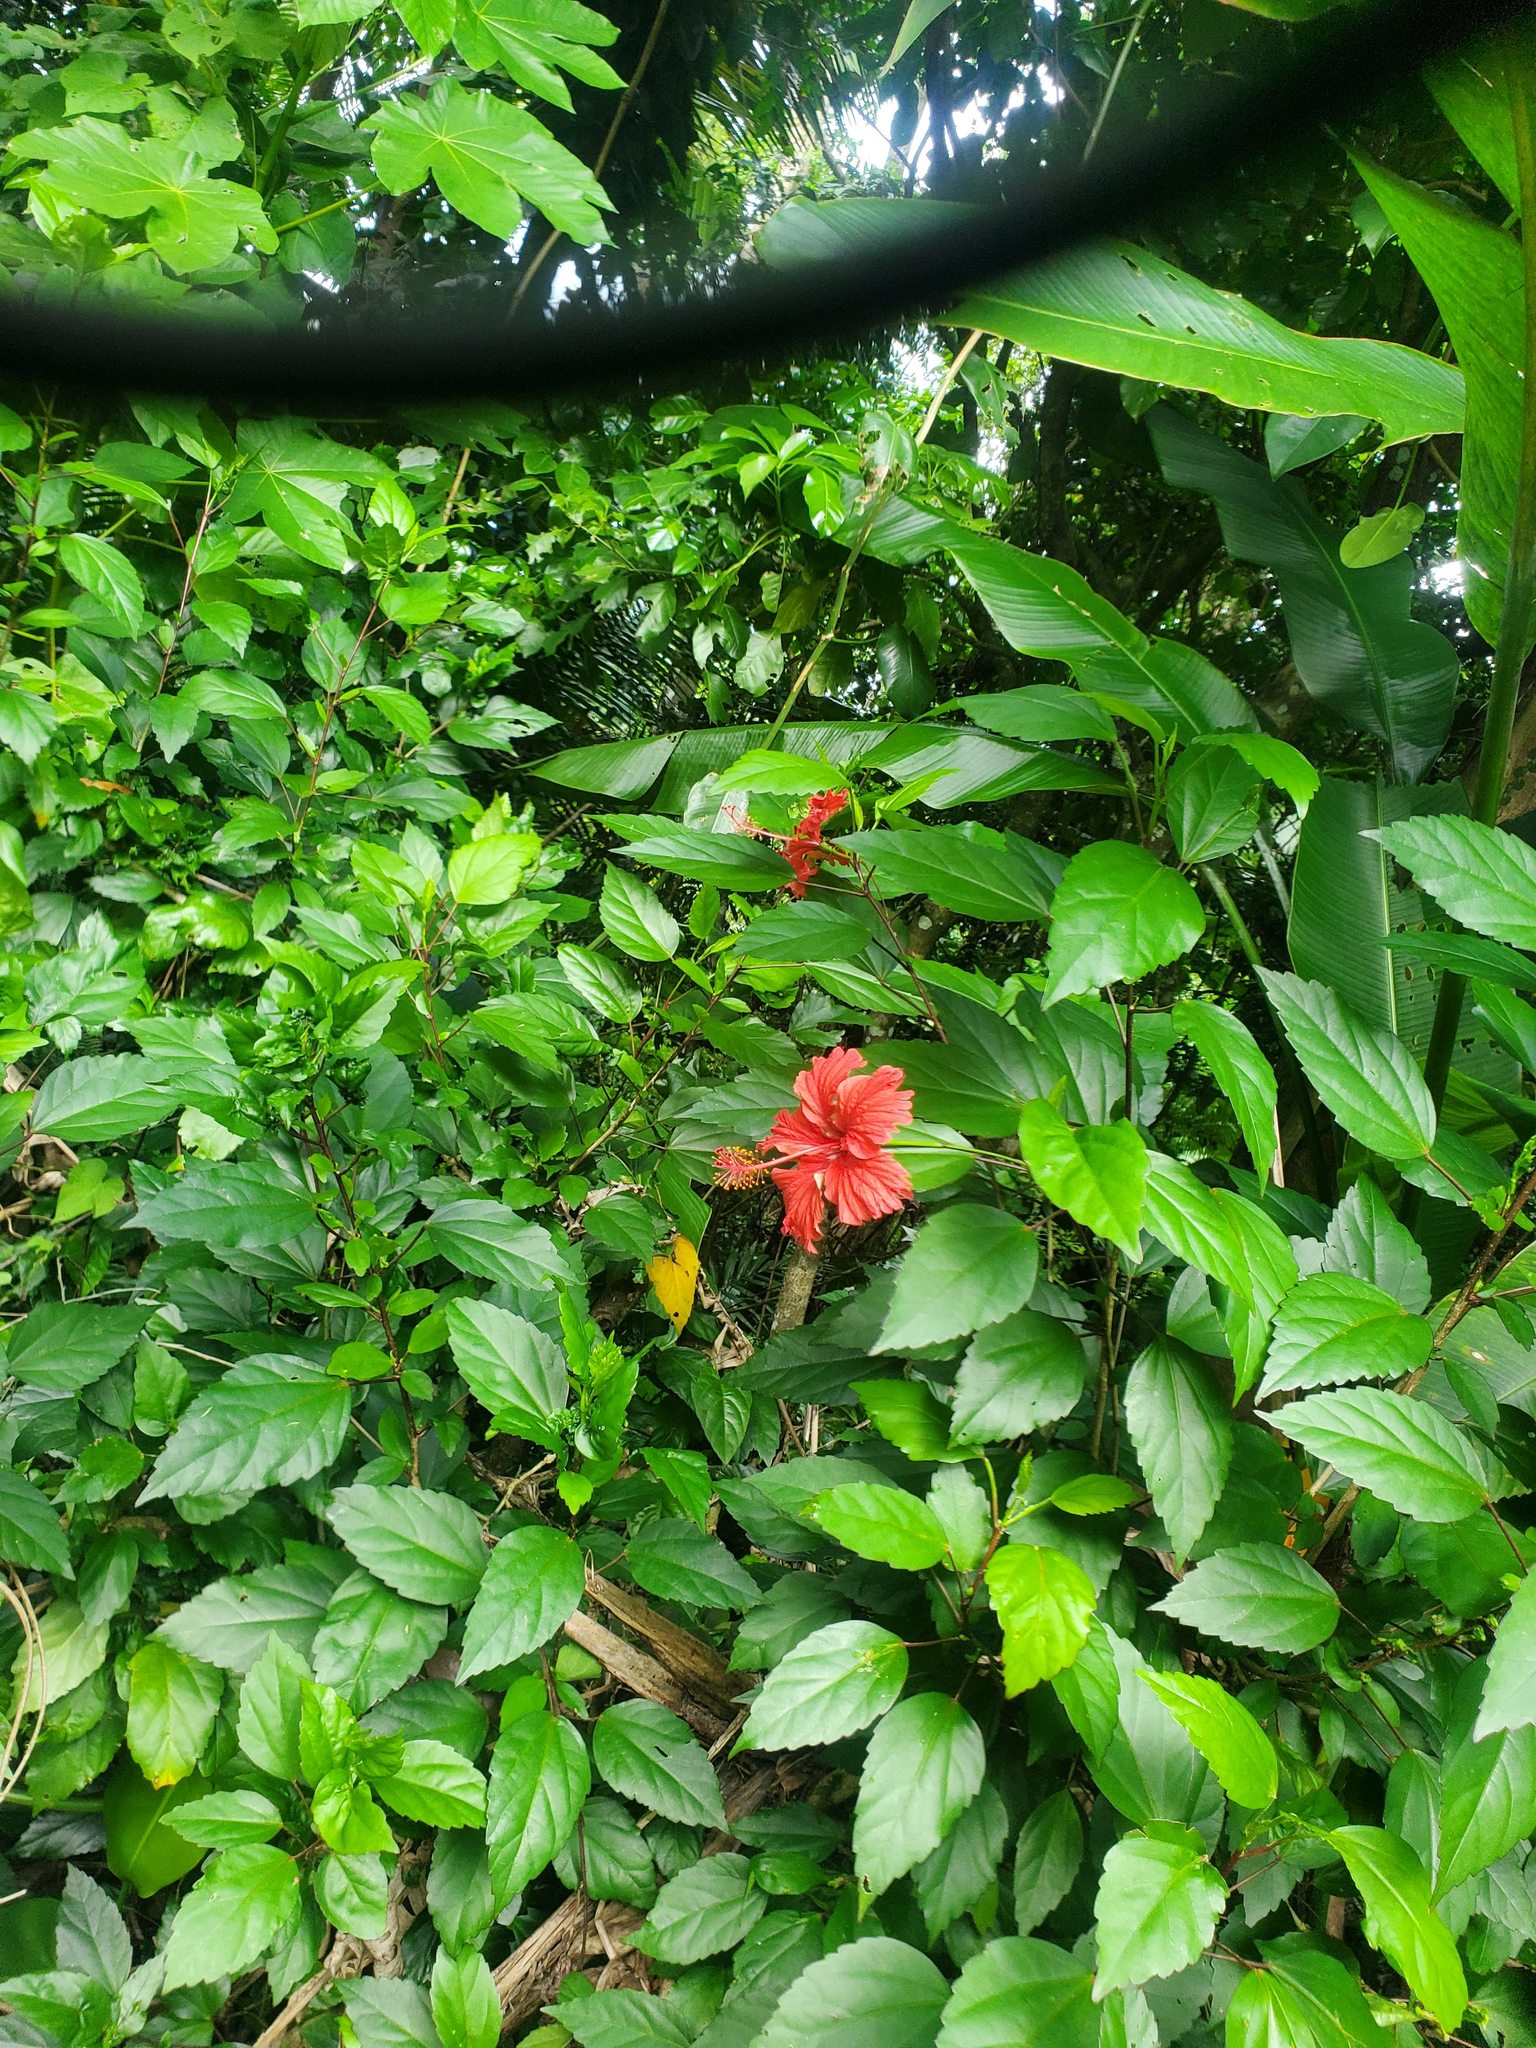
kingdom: Plantae
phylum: Tracheophyta
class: Magnoliopsida
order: Malvales
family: Malvaceae
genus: Hibiscus
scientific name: Hibiscus archeri
